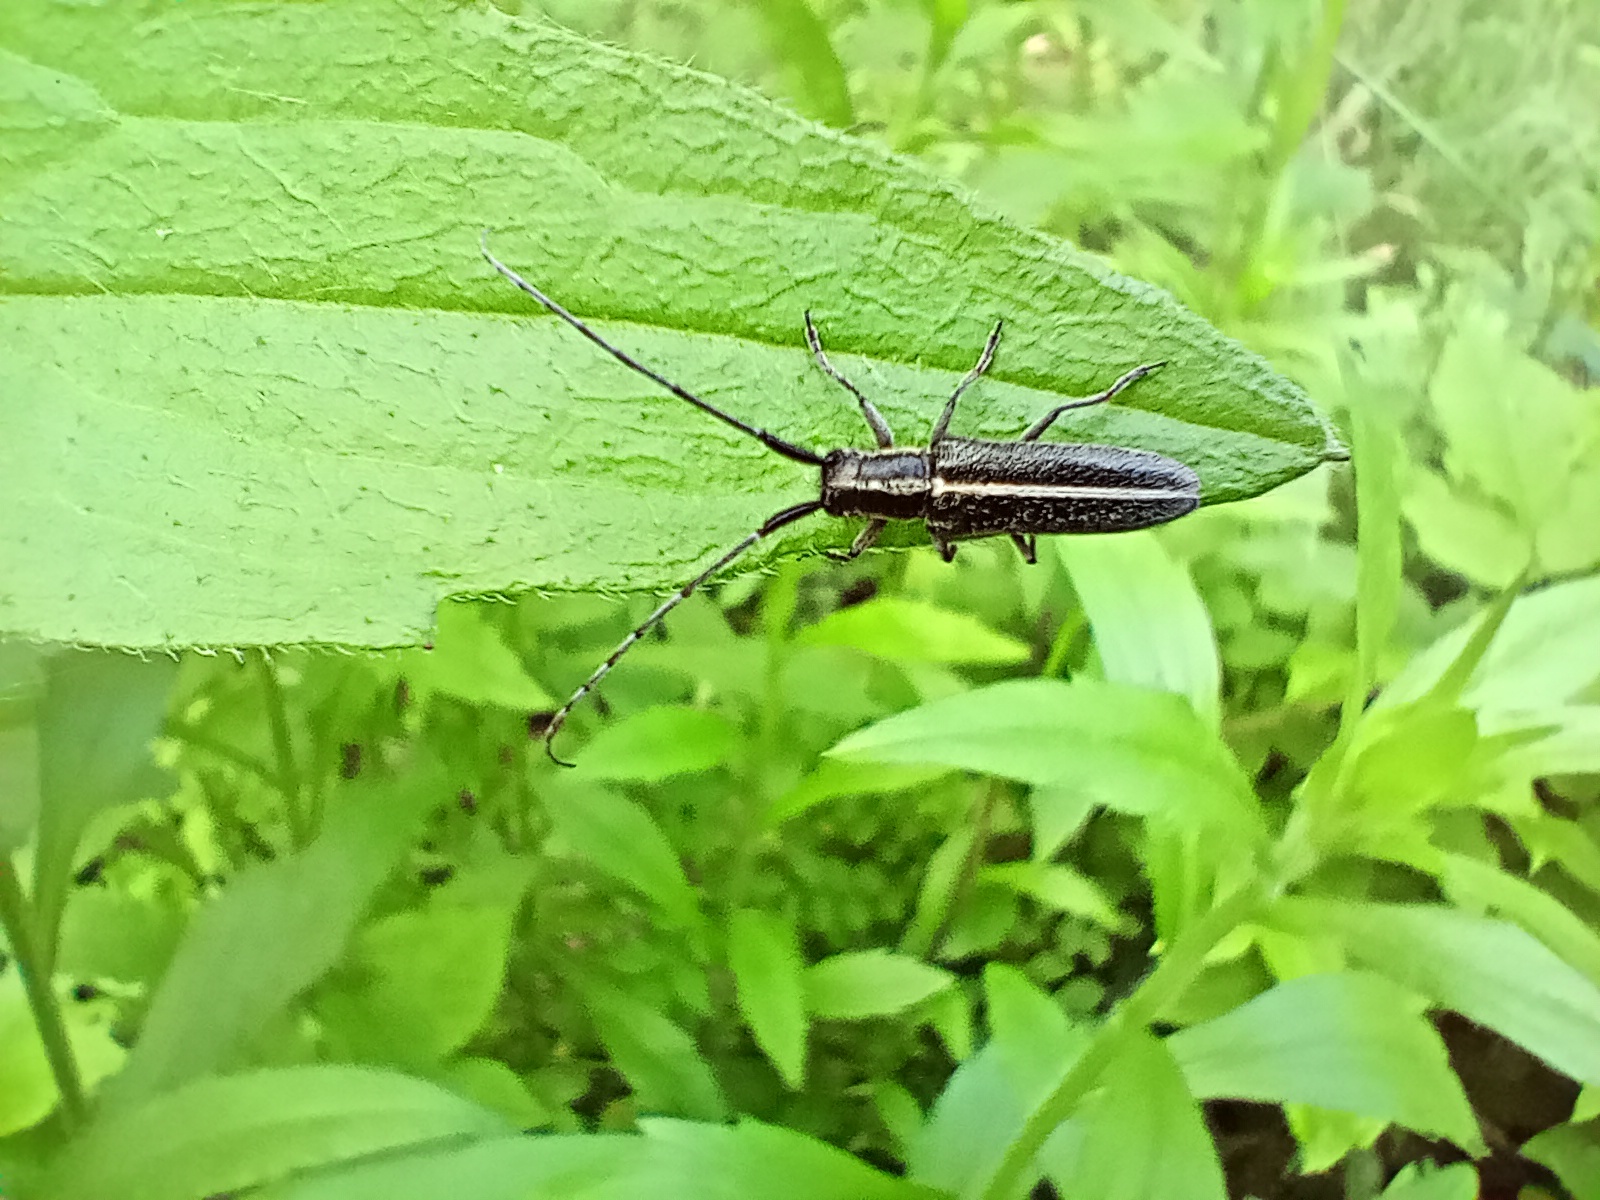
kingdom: Animalia
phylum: Arthropoda
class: Insecta
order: Coleoptera
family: Cerambycidae
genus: Agapanthia
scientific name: Agapanthia cardui
